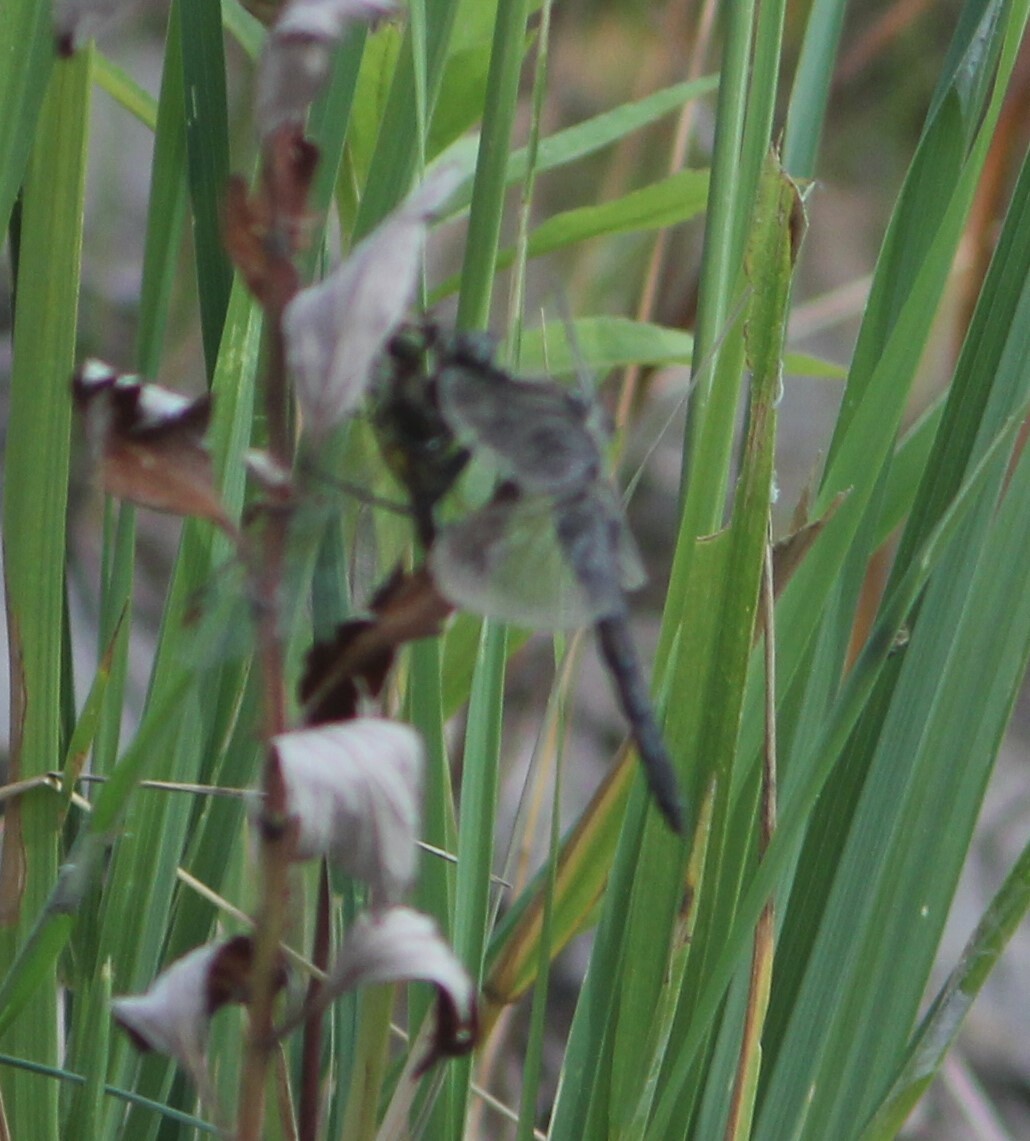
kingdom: Animalia
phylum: Arthropoda
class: Insecta
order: Odonata
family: Libellulidae
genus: Orthetrum
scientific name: Orthetrum cancellatum
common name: Black-tailed skimmer
